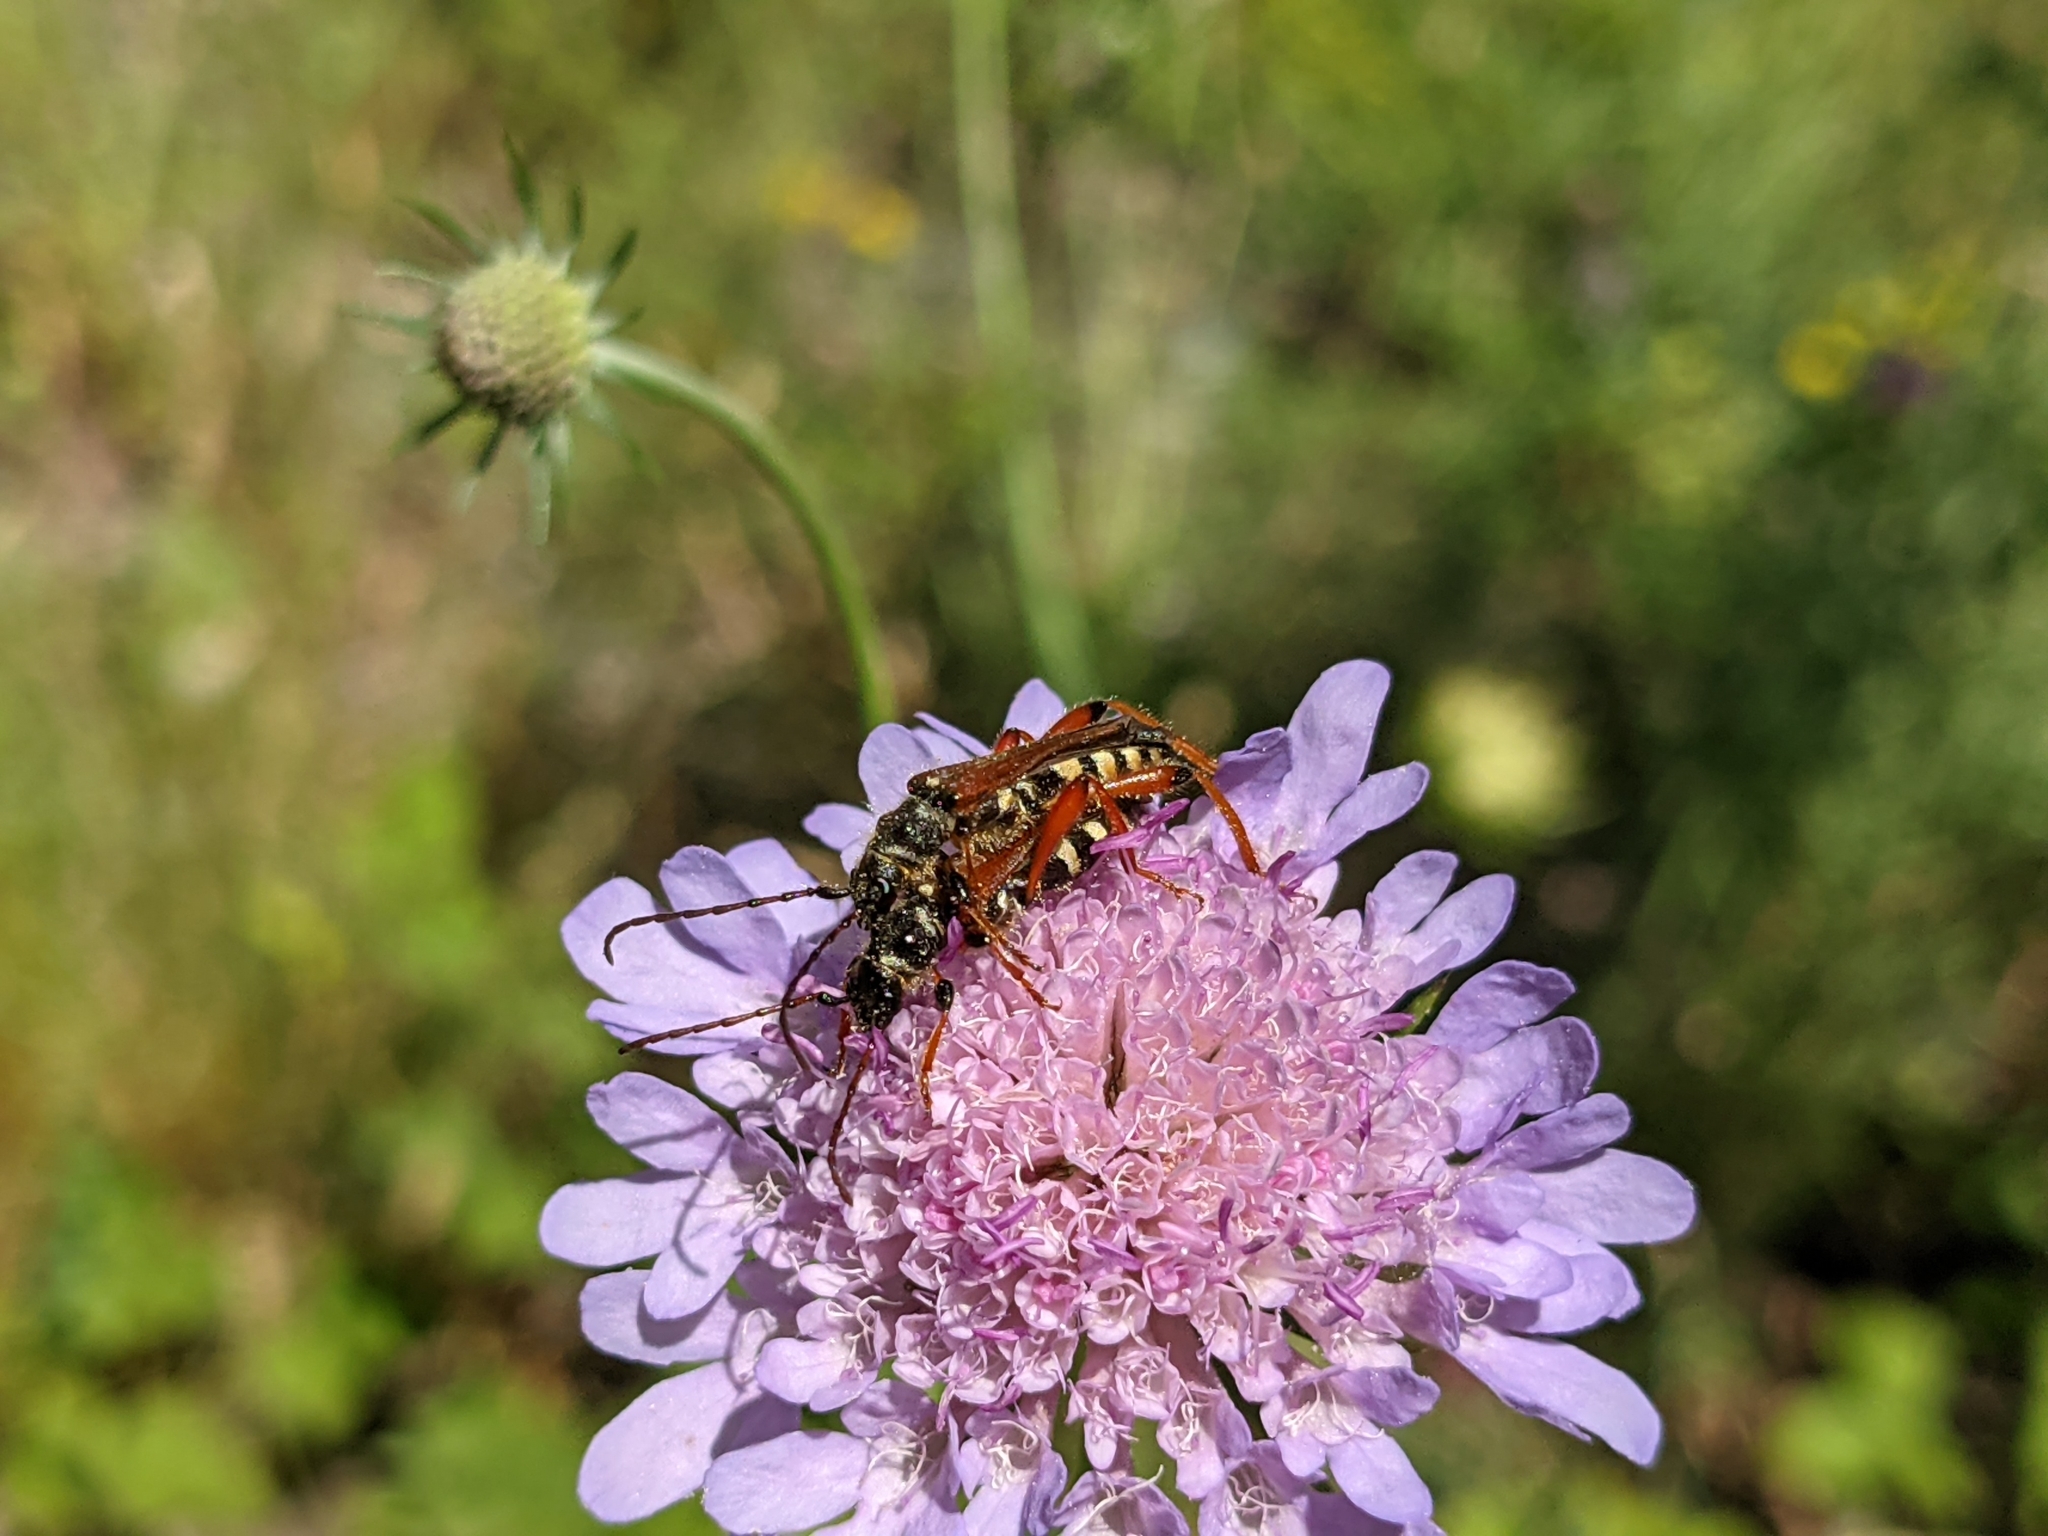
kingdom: Animalia
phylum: Arthropoda
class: Insecta
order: Coleoptera
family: Cerambycidae
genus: Stenopterus
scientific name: Stenopterus rufus
